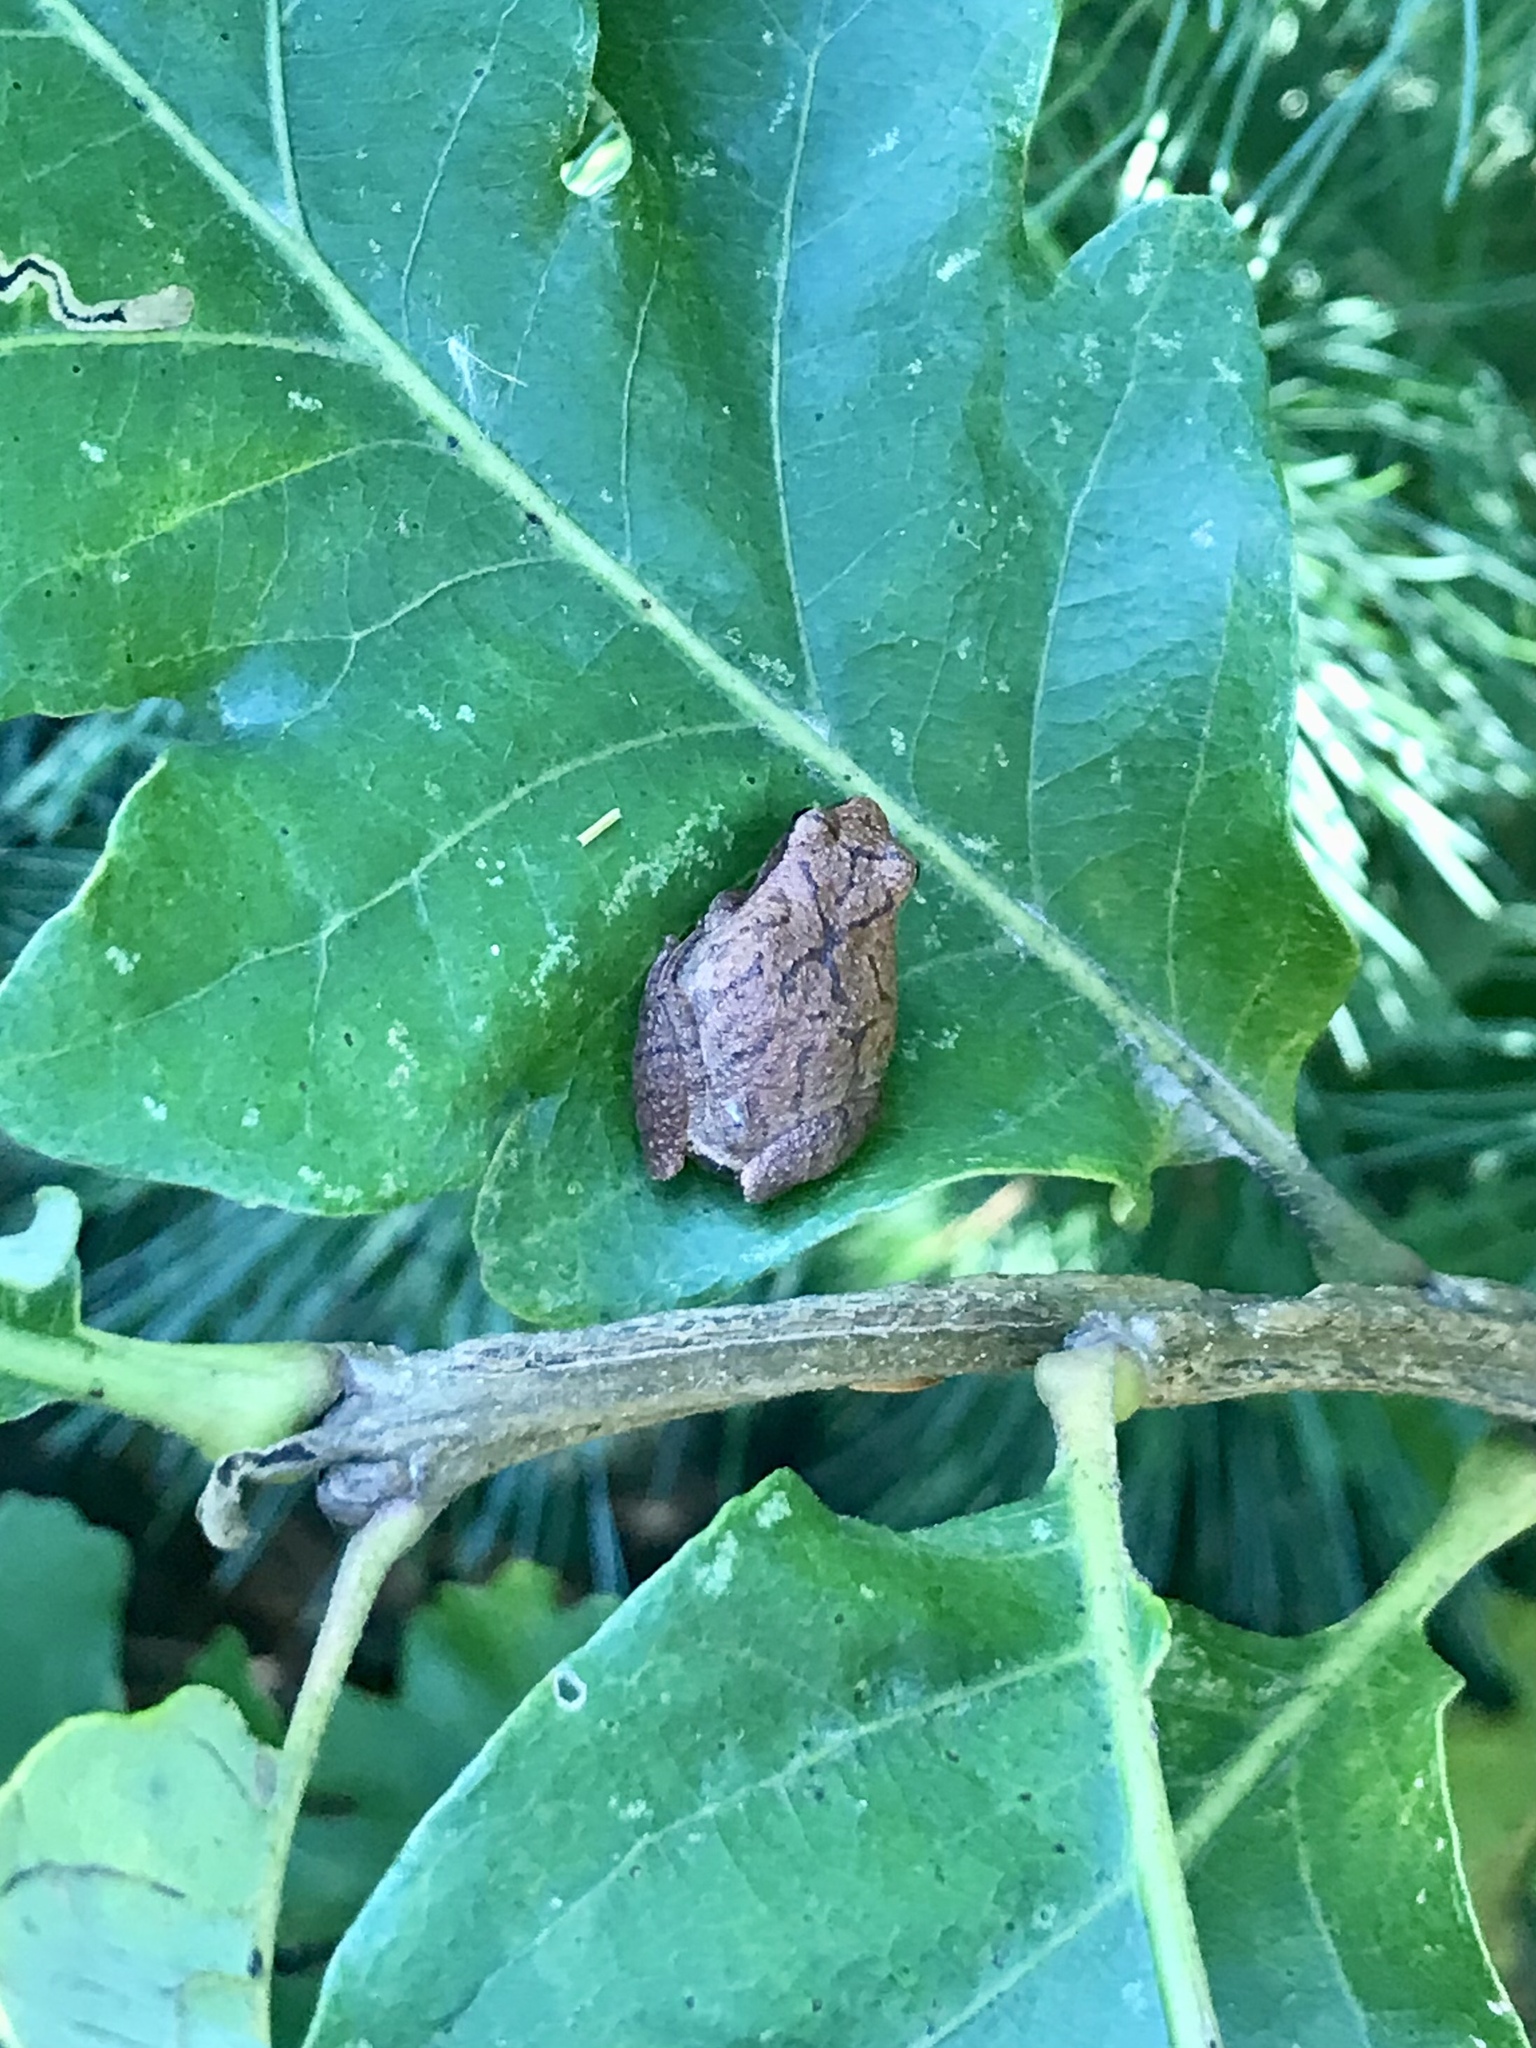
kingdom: Animalia
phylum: Chordata
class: Amphibia
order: Anura
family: Hylidae
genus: Pseudacris
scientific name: Pseudacris crucifer
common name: Spring peeper
